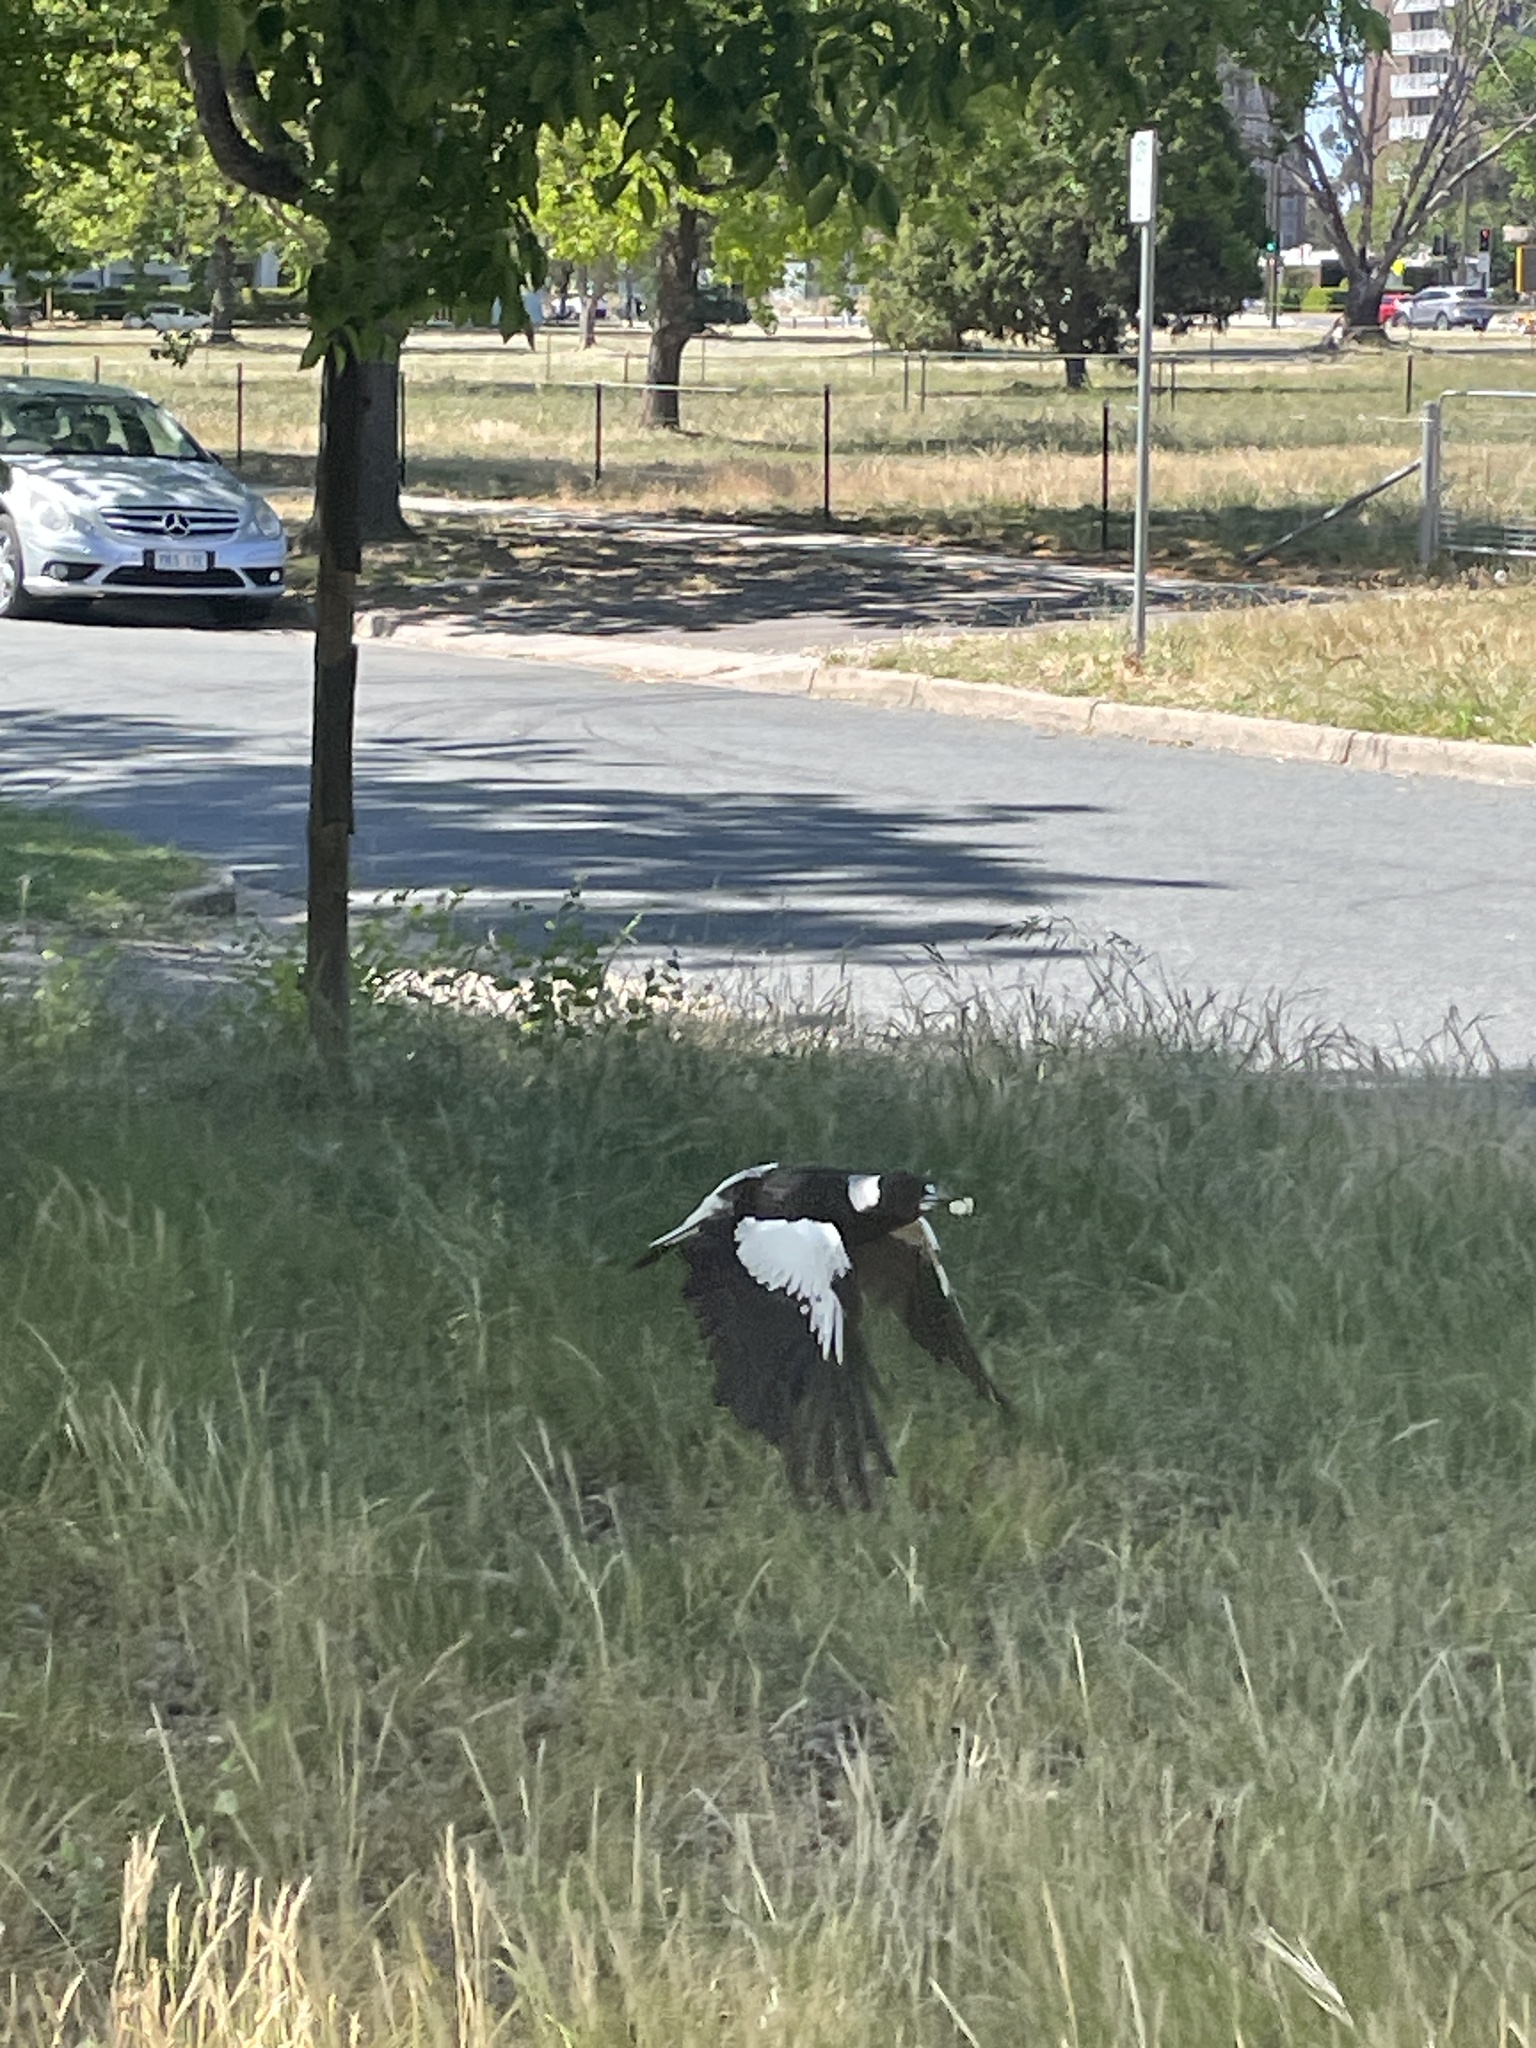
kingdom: Animalia
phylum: Chordata
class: Aves
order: Passeriformes
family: Cracticidae
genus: Gymnorhina
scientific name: Gymnorhina tibicen
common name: Australian magpie
